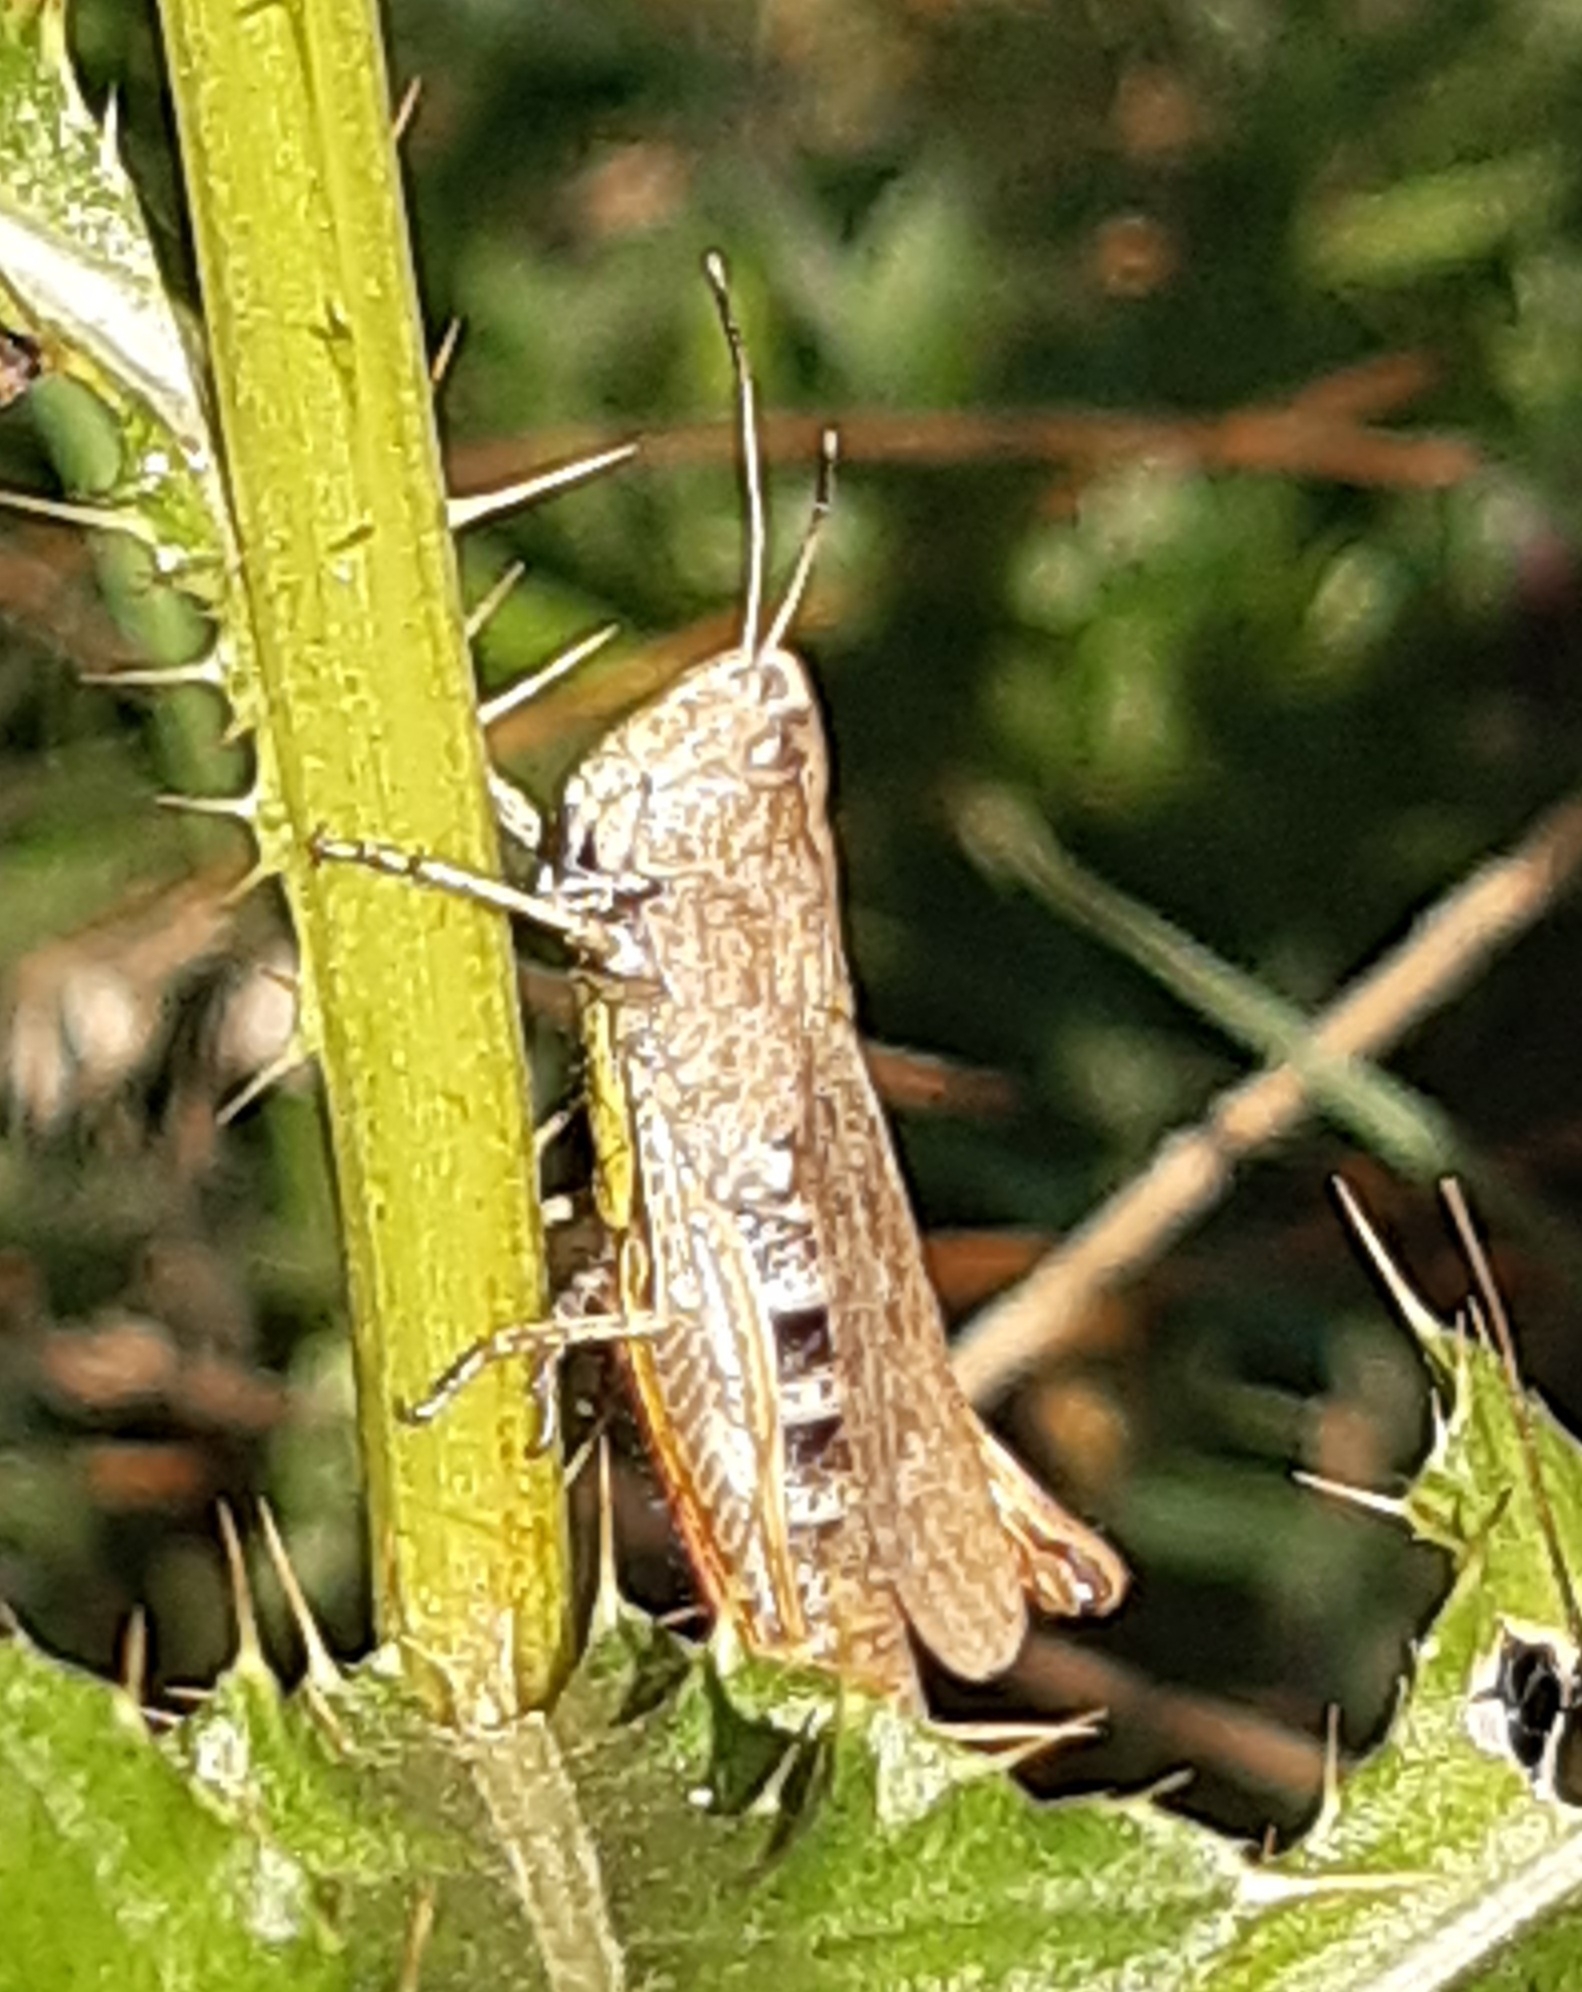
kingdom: Animalia
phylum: Arthropoda
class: Insecta
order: Orthoptera
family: Acrididae
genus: Gomphocerippus
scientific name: Gomphocerippus rufus
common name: Rufous grasshopper
